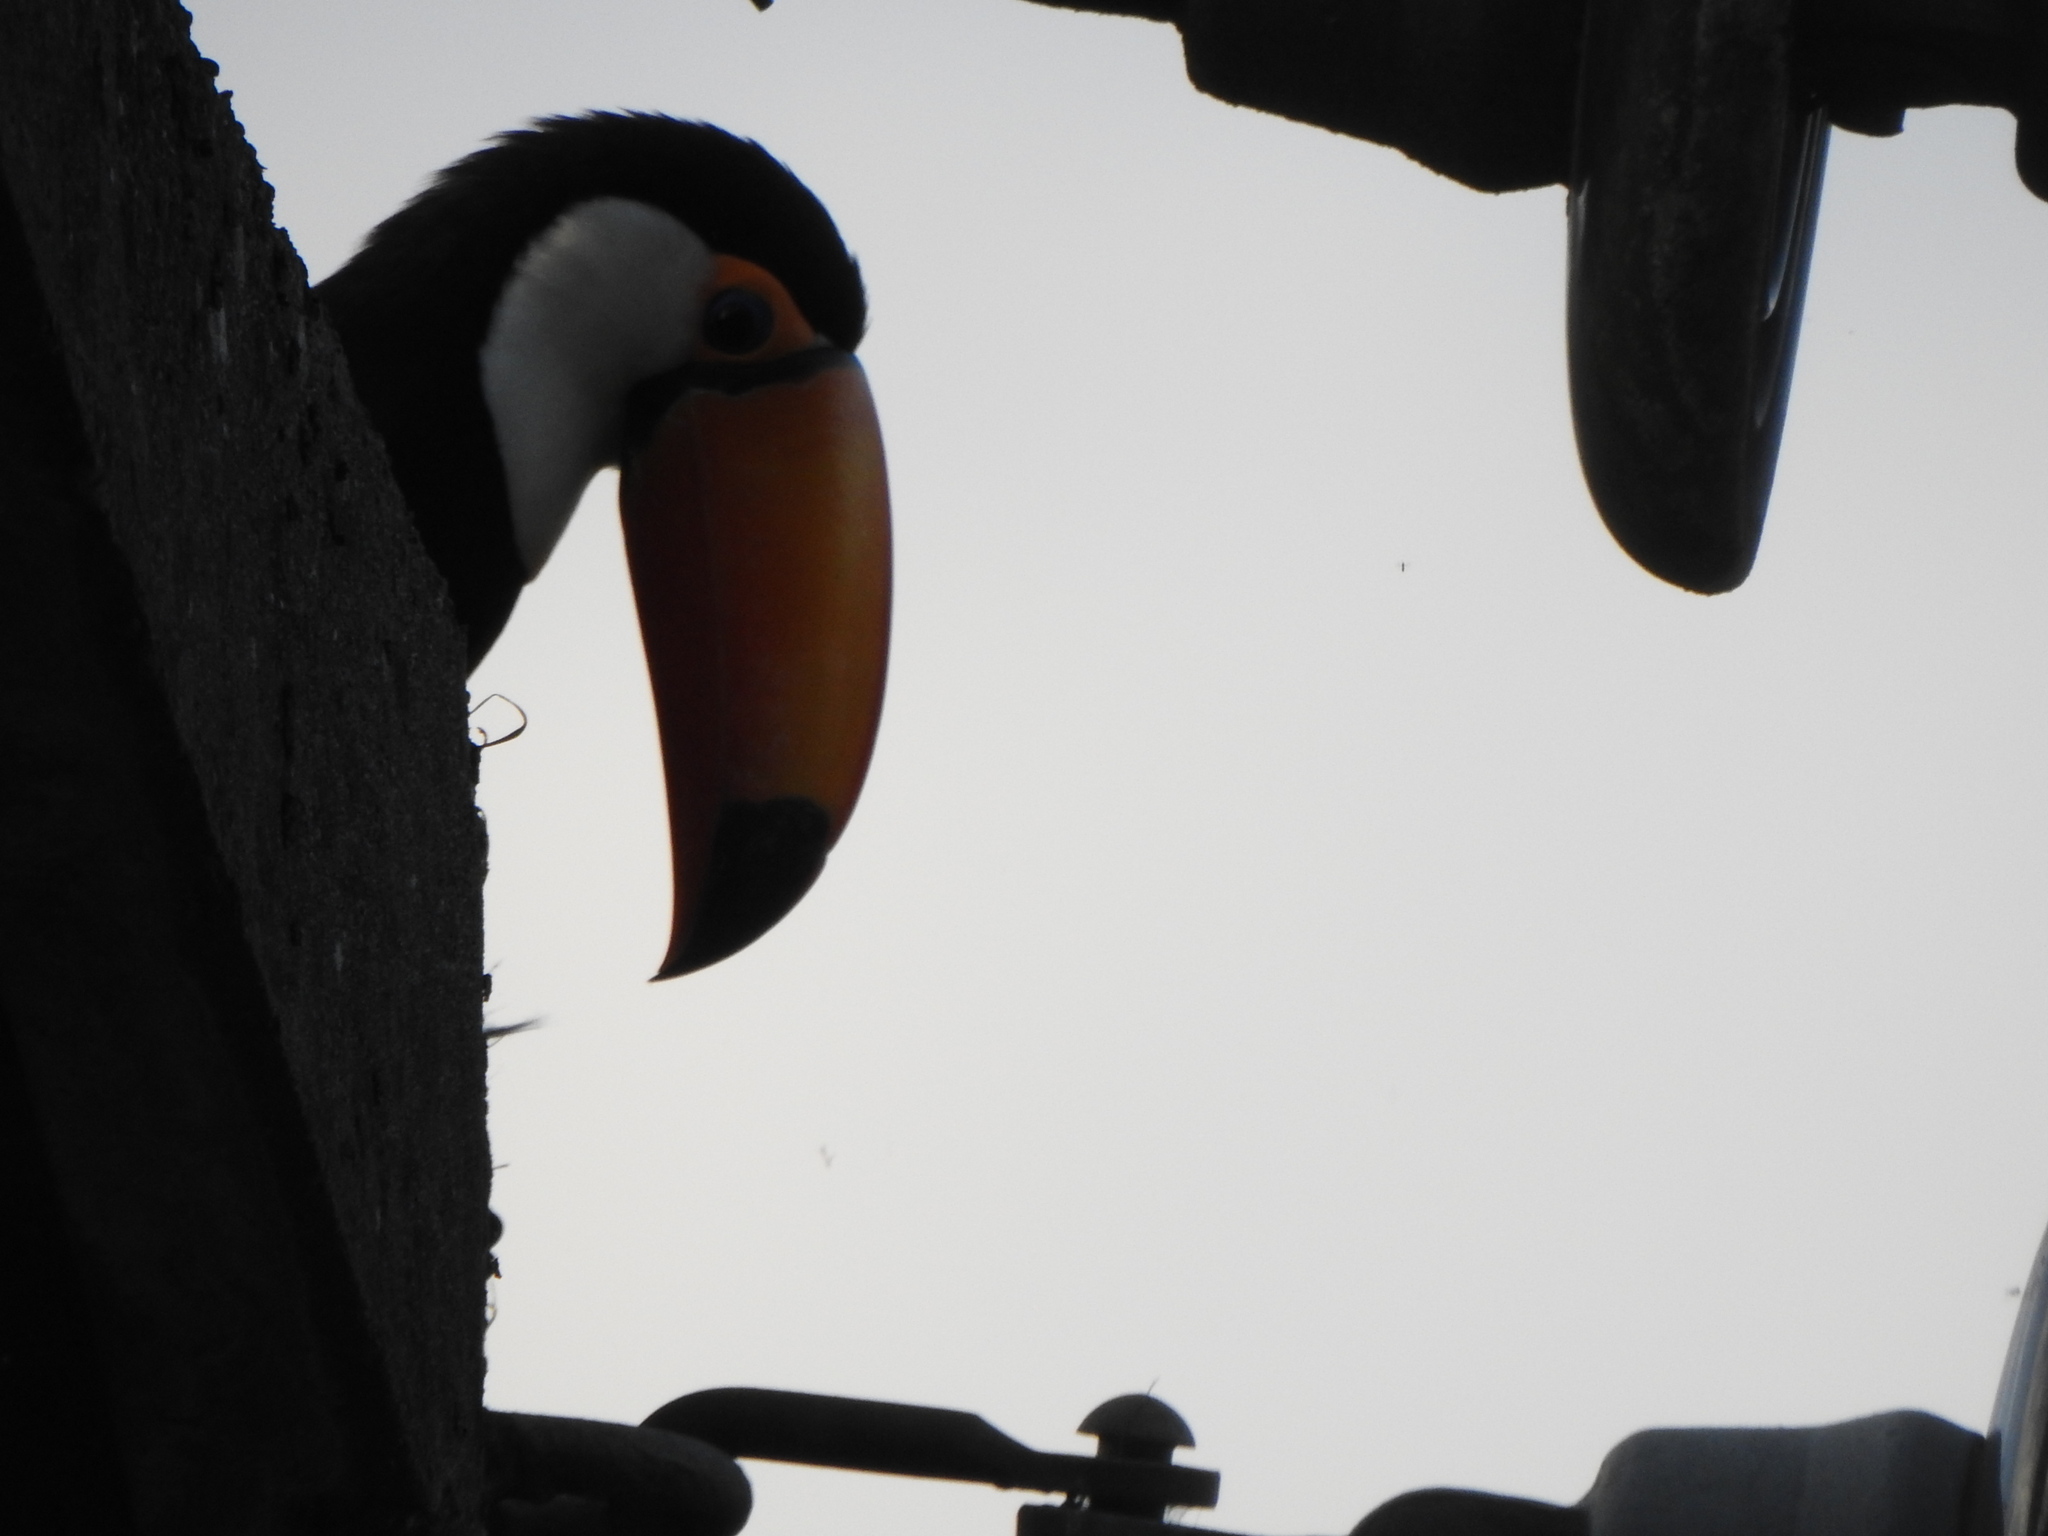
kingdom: Animalia
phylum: Chordata
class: Aves
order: Piciformes
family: Ramphastidae
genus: Ramphastos
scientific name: Ramphastos toco
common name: Toco toucan
